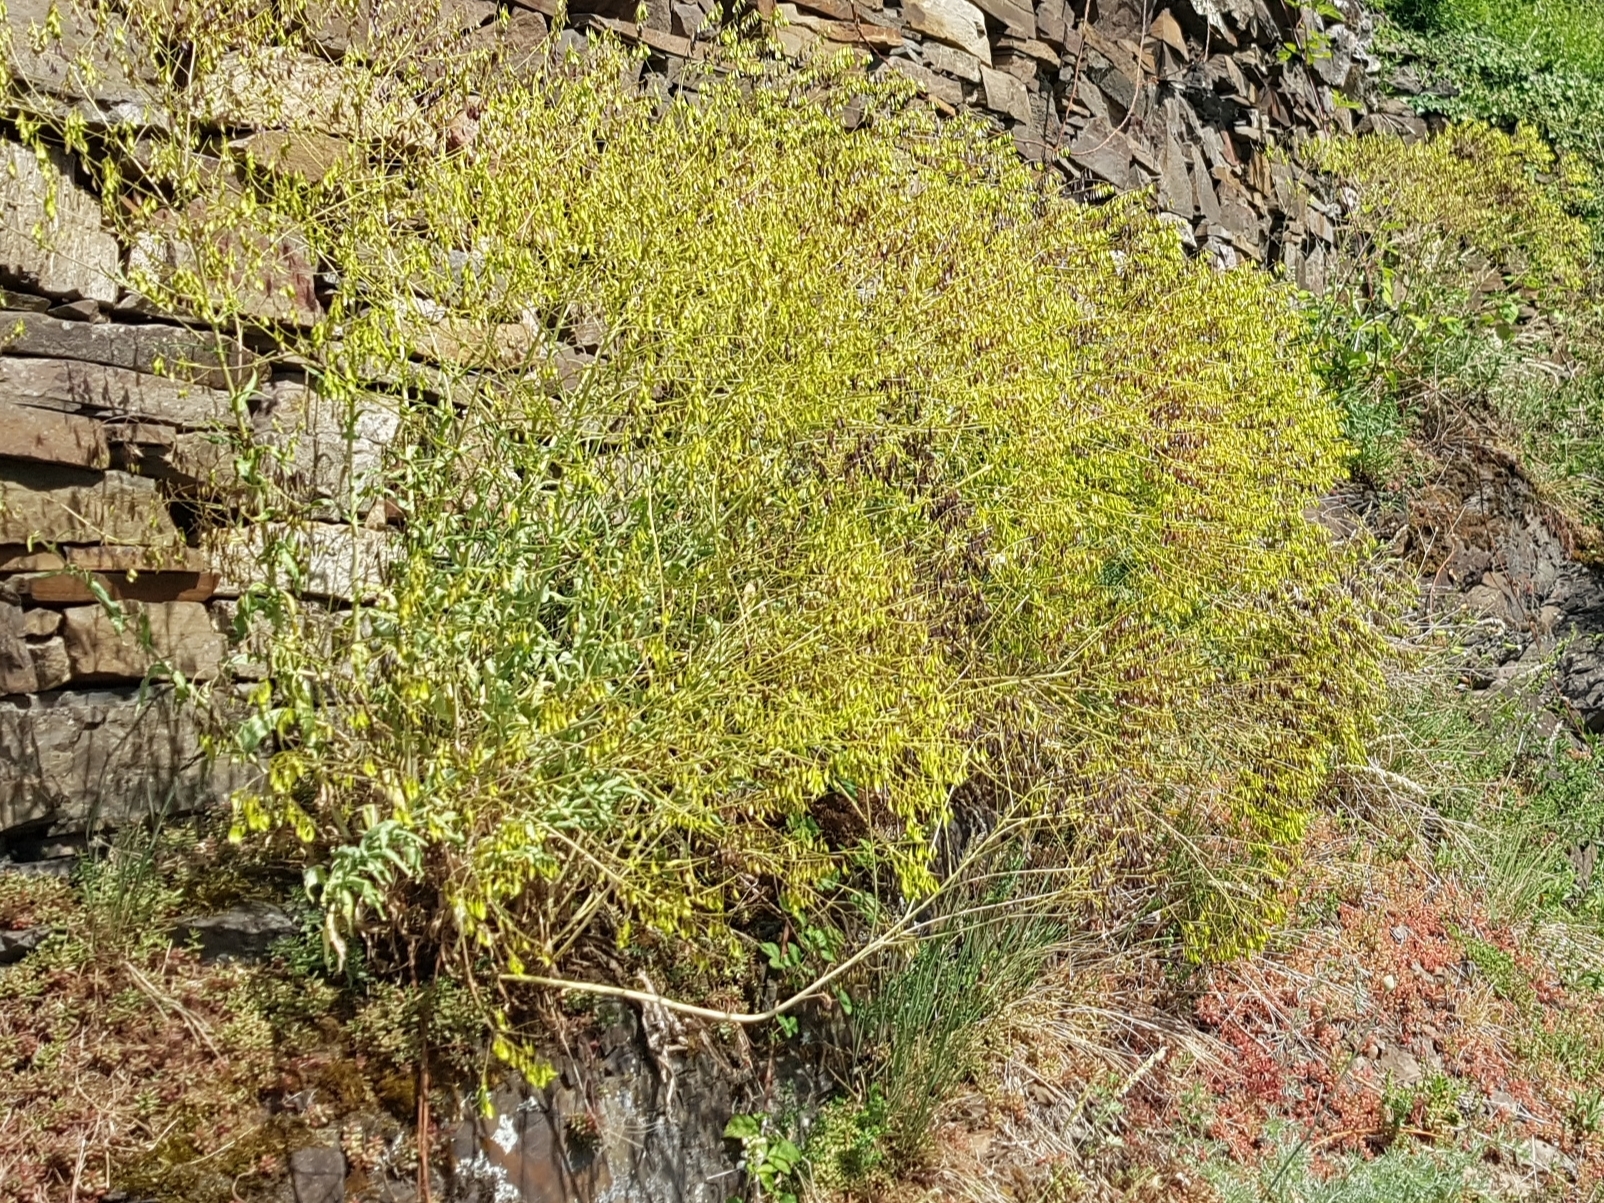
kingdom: Plantae
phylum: Tracheophyta
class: Magnoliopsida
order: Brassicales
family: Brassicaceae
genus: Isatis
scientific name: Isatis tinctoria
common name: Woad
